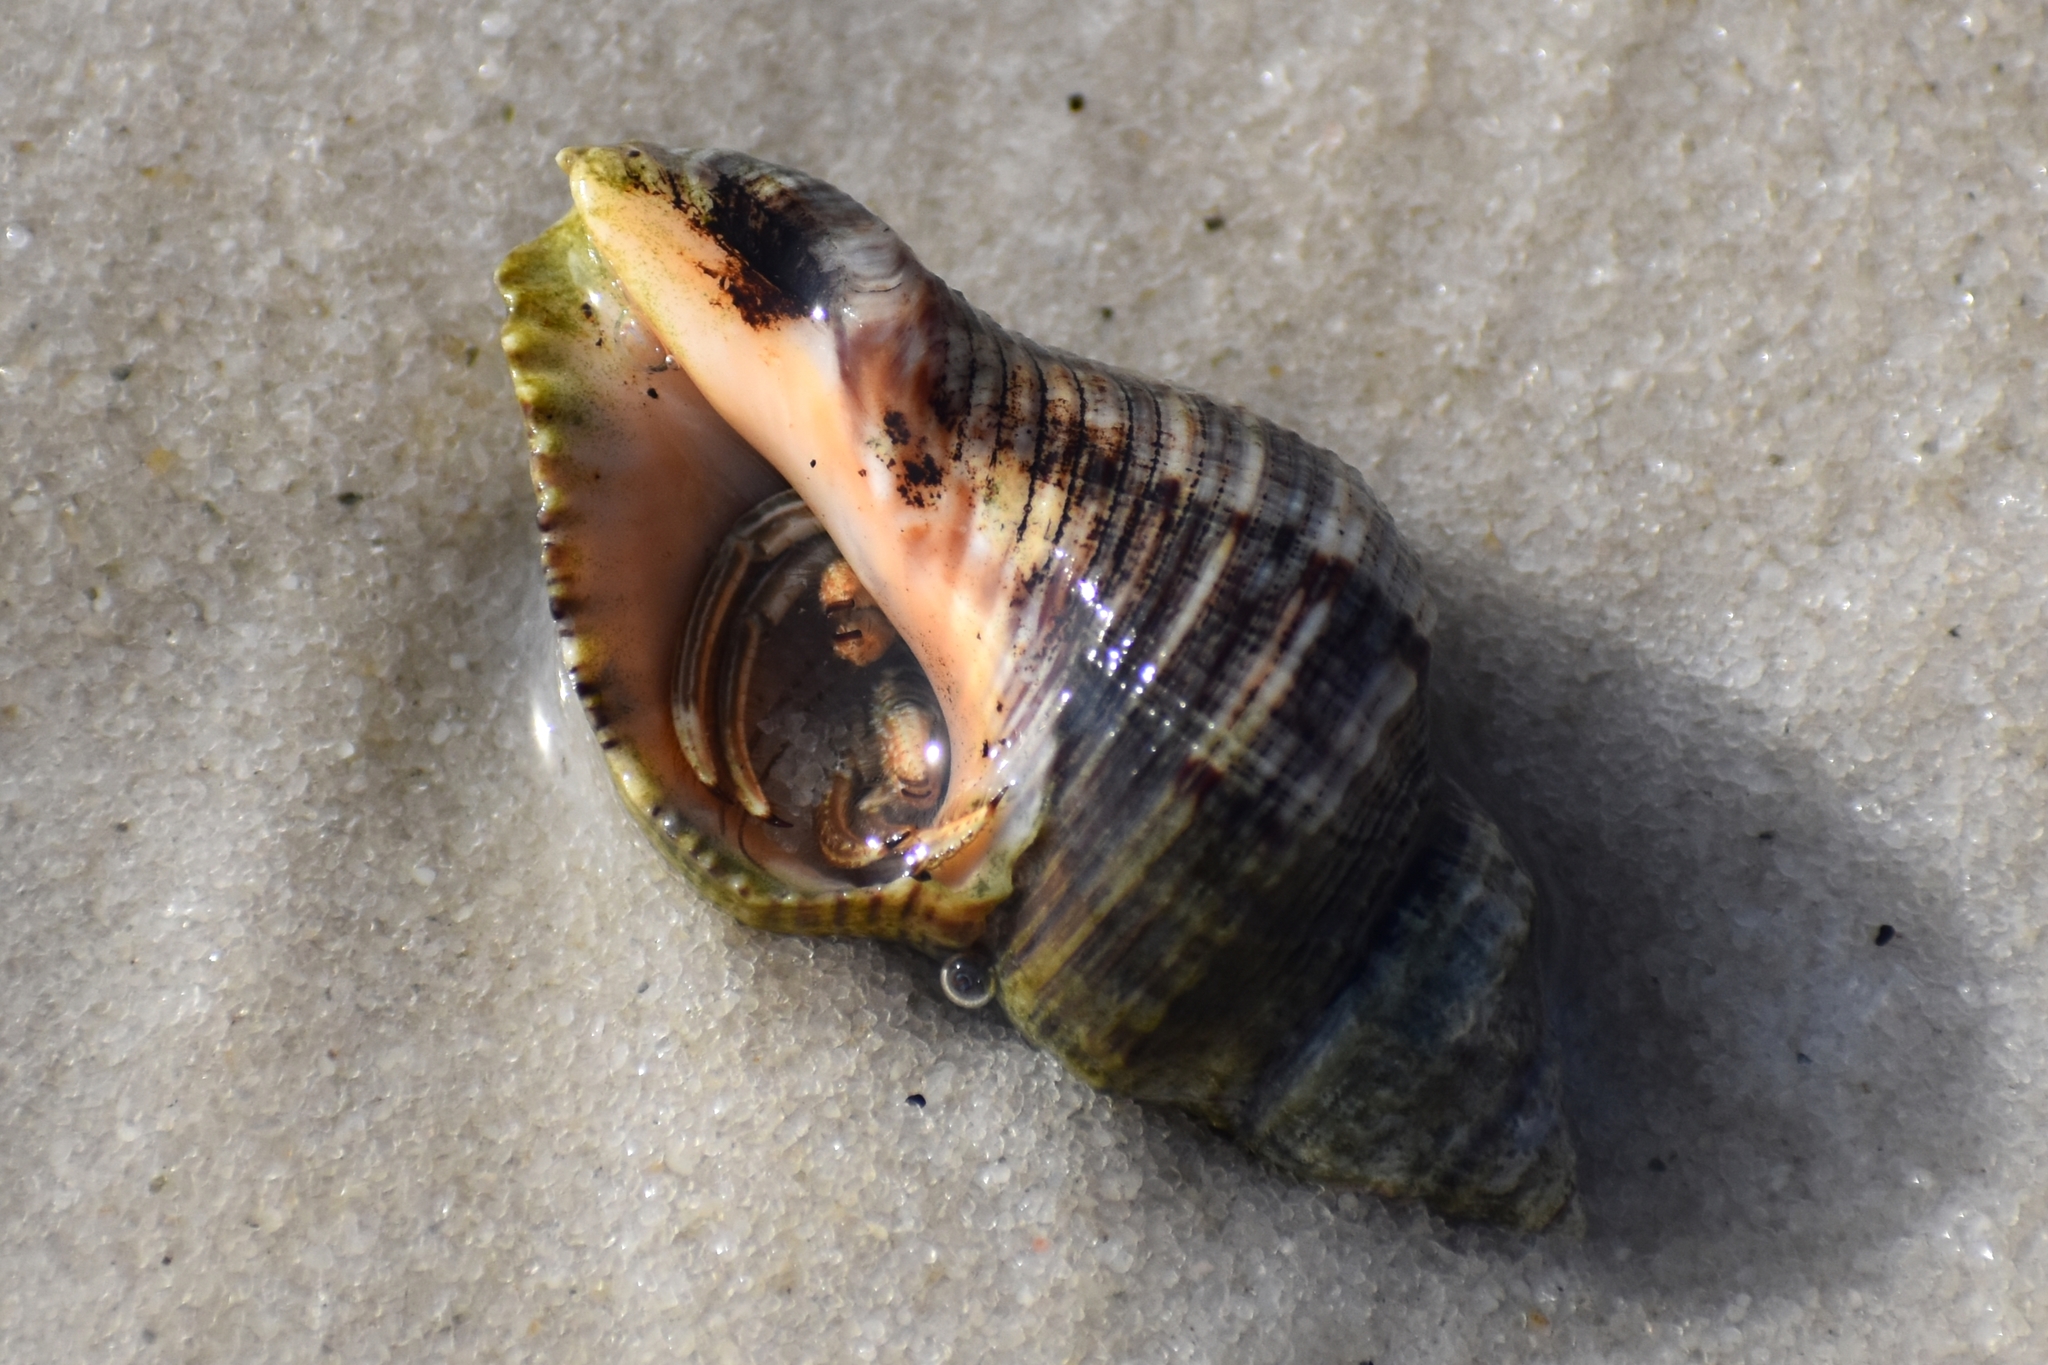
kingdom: Animalia
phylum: Arthropoda
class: Malacostraca
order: Decapoda
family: Diogenidae
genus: Clibanarius
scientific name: Clibanarius vittatus
